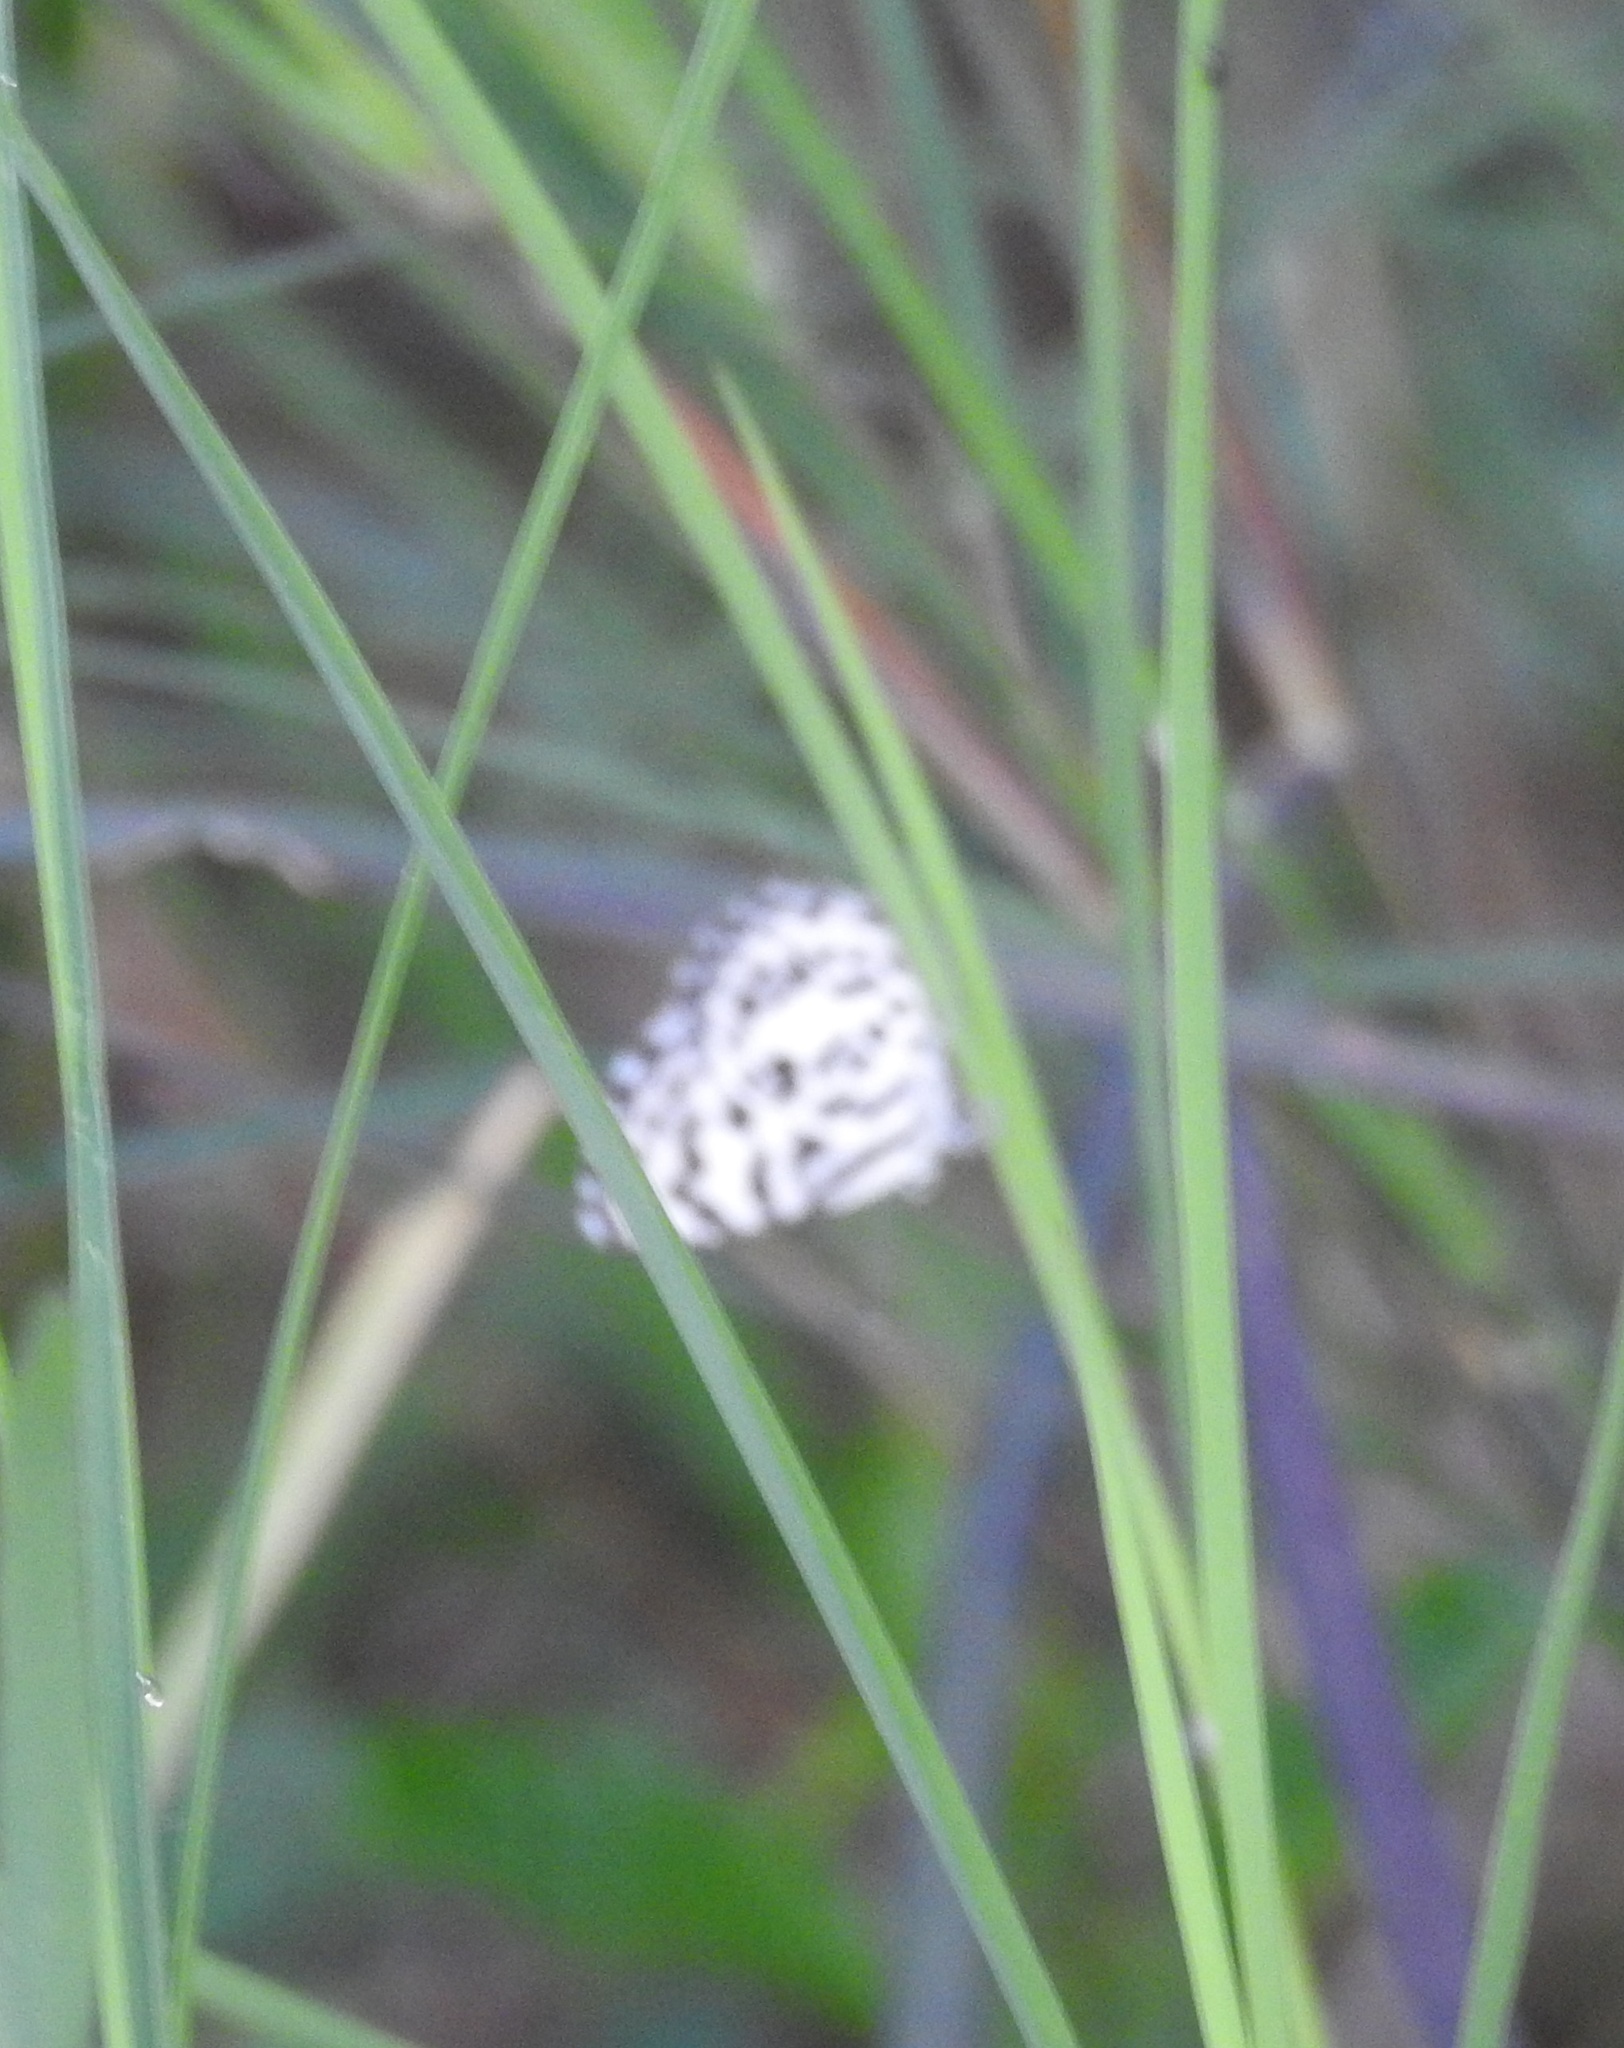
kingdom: Animalia
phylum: Arthropoda
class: Insecta
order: Lepidoptera
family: Lycaenidae
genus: Castalius
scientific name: Castalius rosimon
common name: Common pierrot
